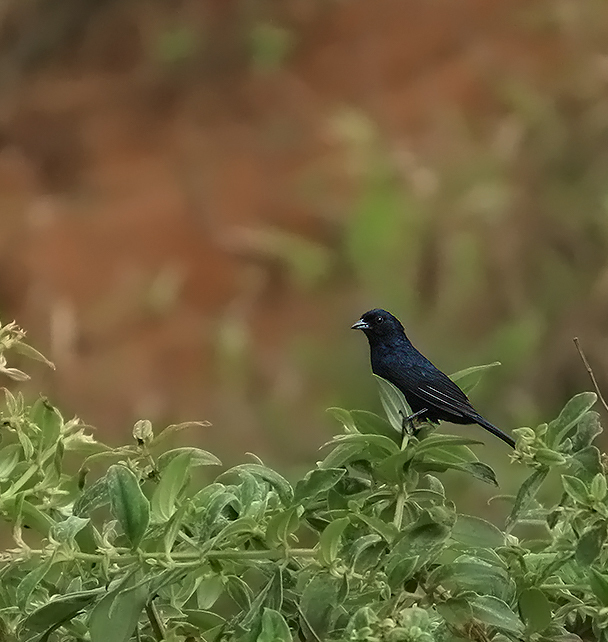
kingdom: Animalia
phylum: Chordata
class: Aves
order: Passeriformes
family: Thraupidae
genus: Tachyphonus
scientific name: Tachyphonus coronatus
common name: Ruby-crowned tanager
